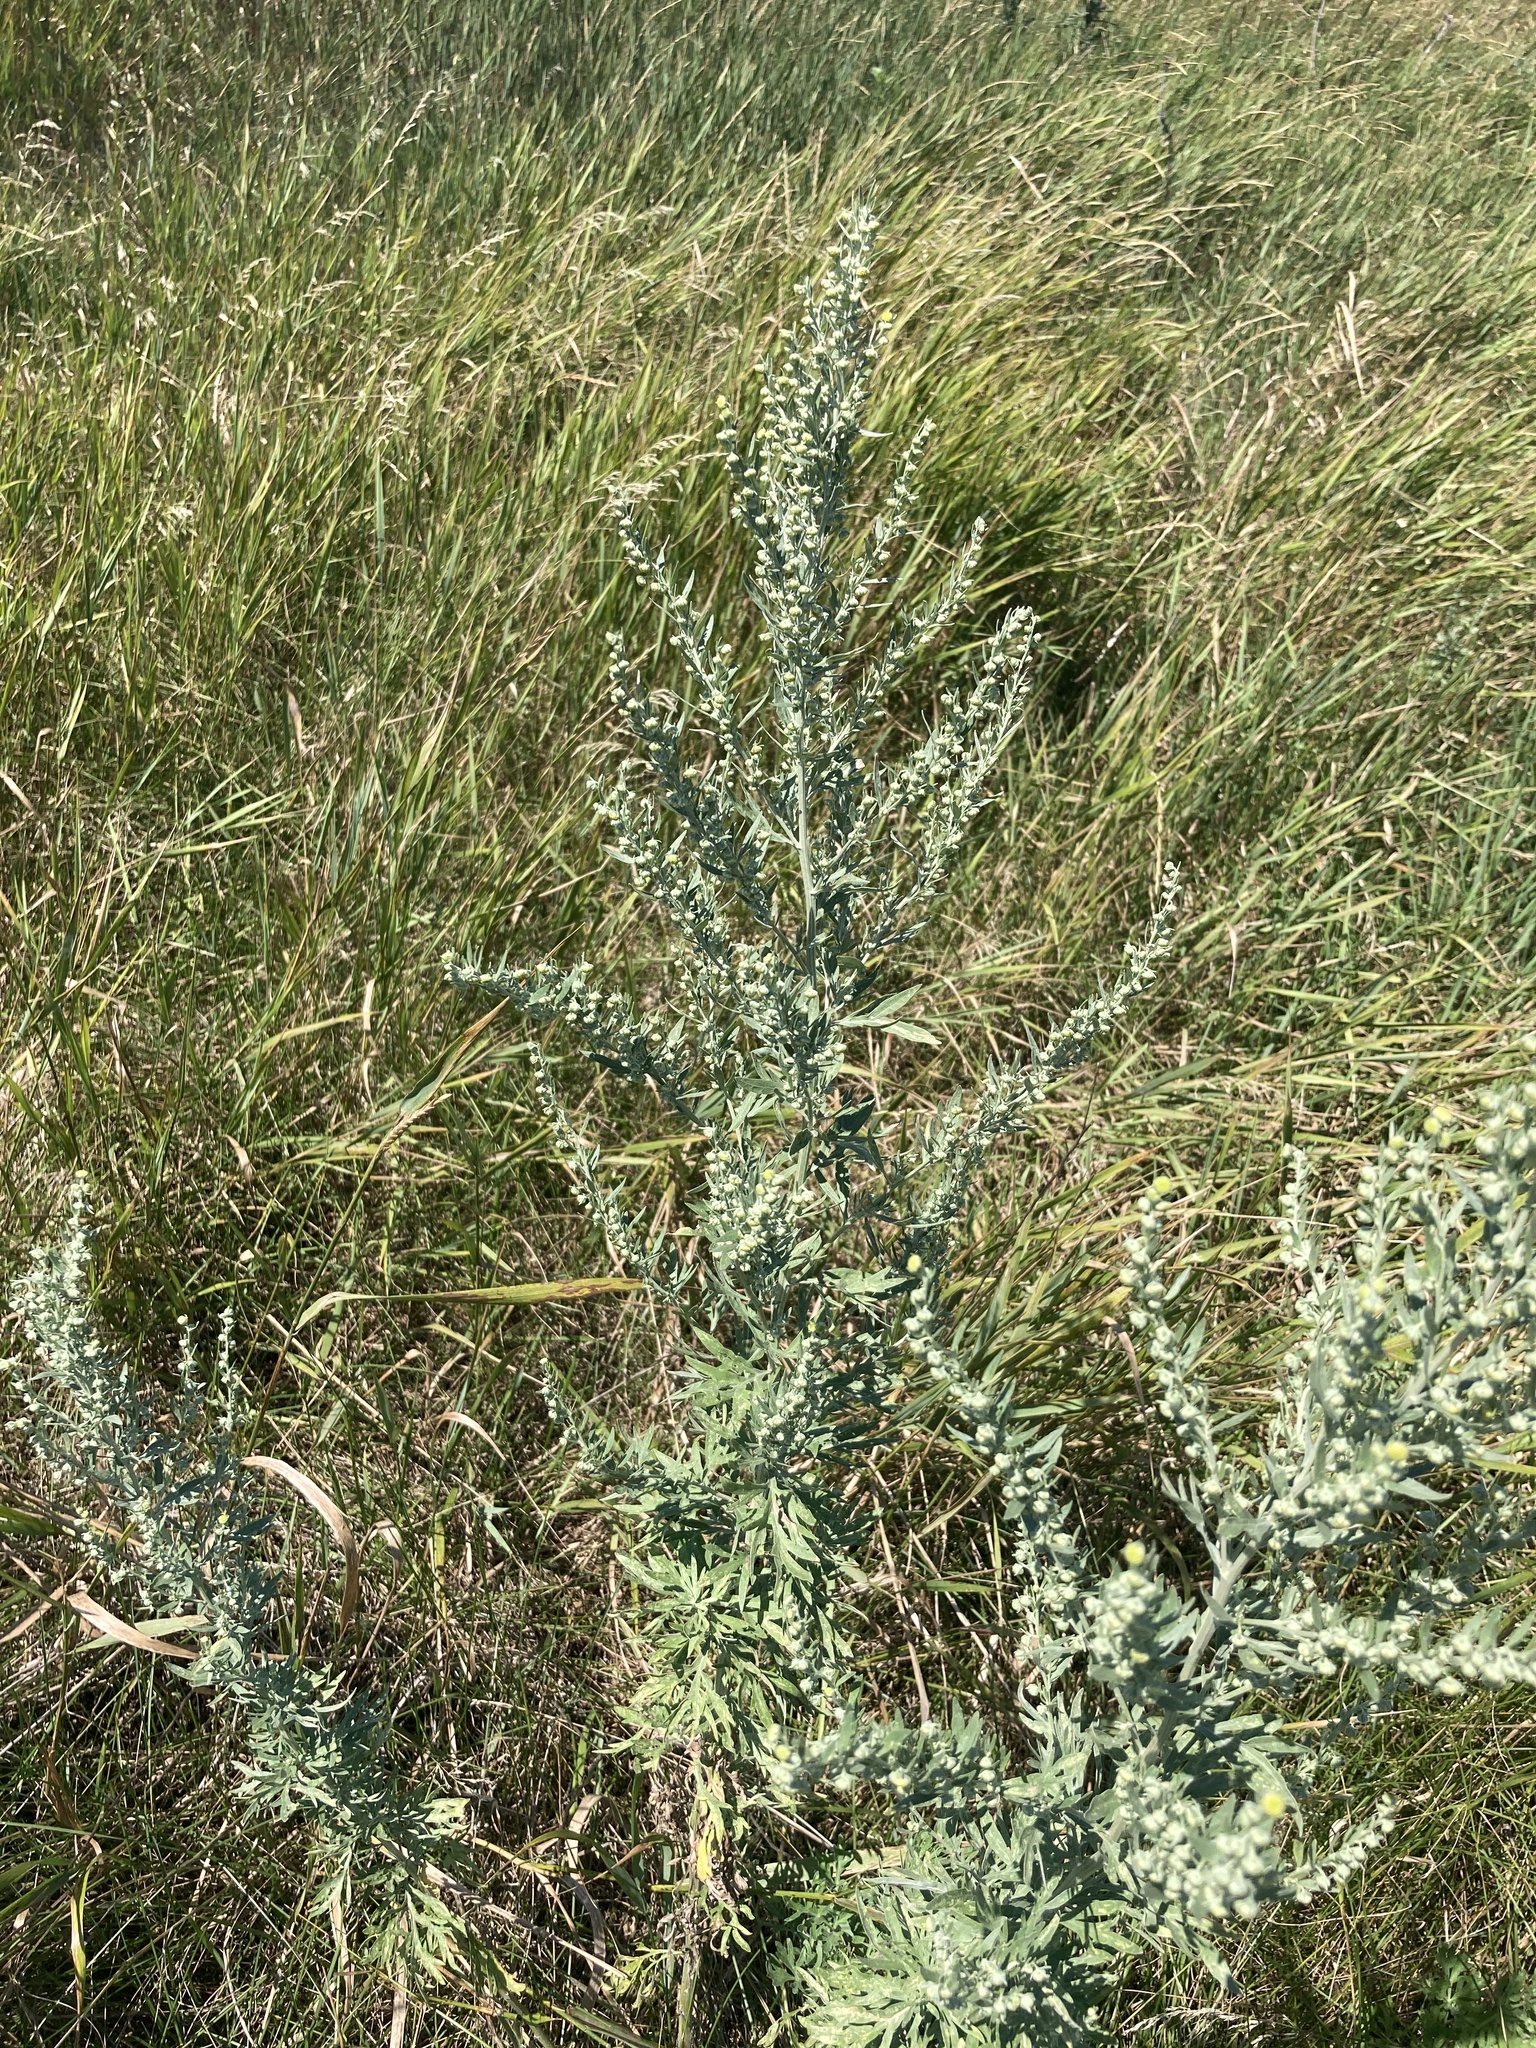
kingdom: Plantae
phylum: Tracheophyta
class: Magnoliopsida
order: Asterales
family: Asteraceae
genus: Artemisia
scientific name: Artemisia absinthium
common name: Wormwood
